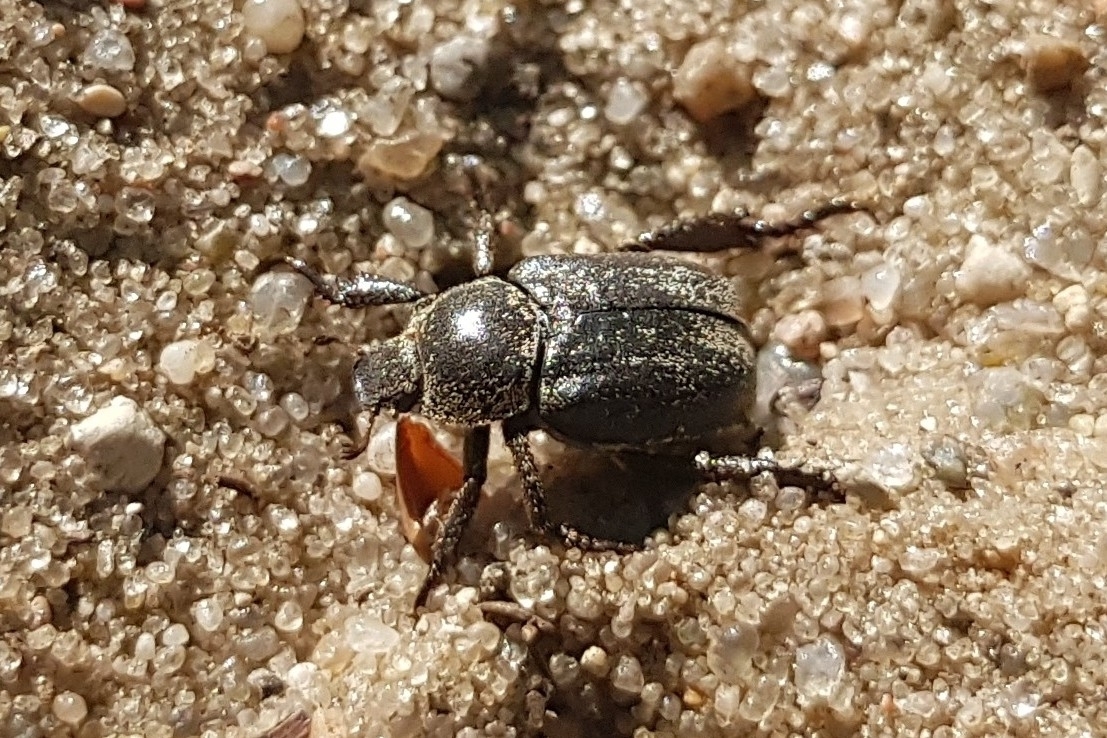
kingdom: Animalia
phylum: Arthropoda
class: Insecta
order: Coleoptera
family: Scarabaeidae
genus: Hoplia
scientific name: Hoplia graminicola
